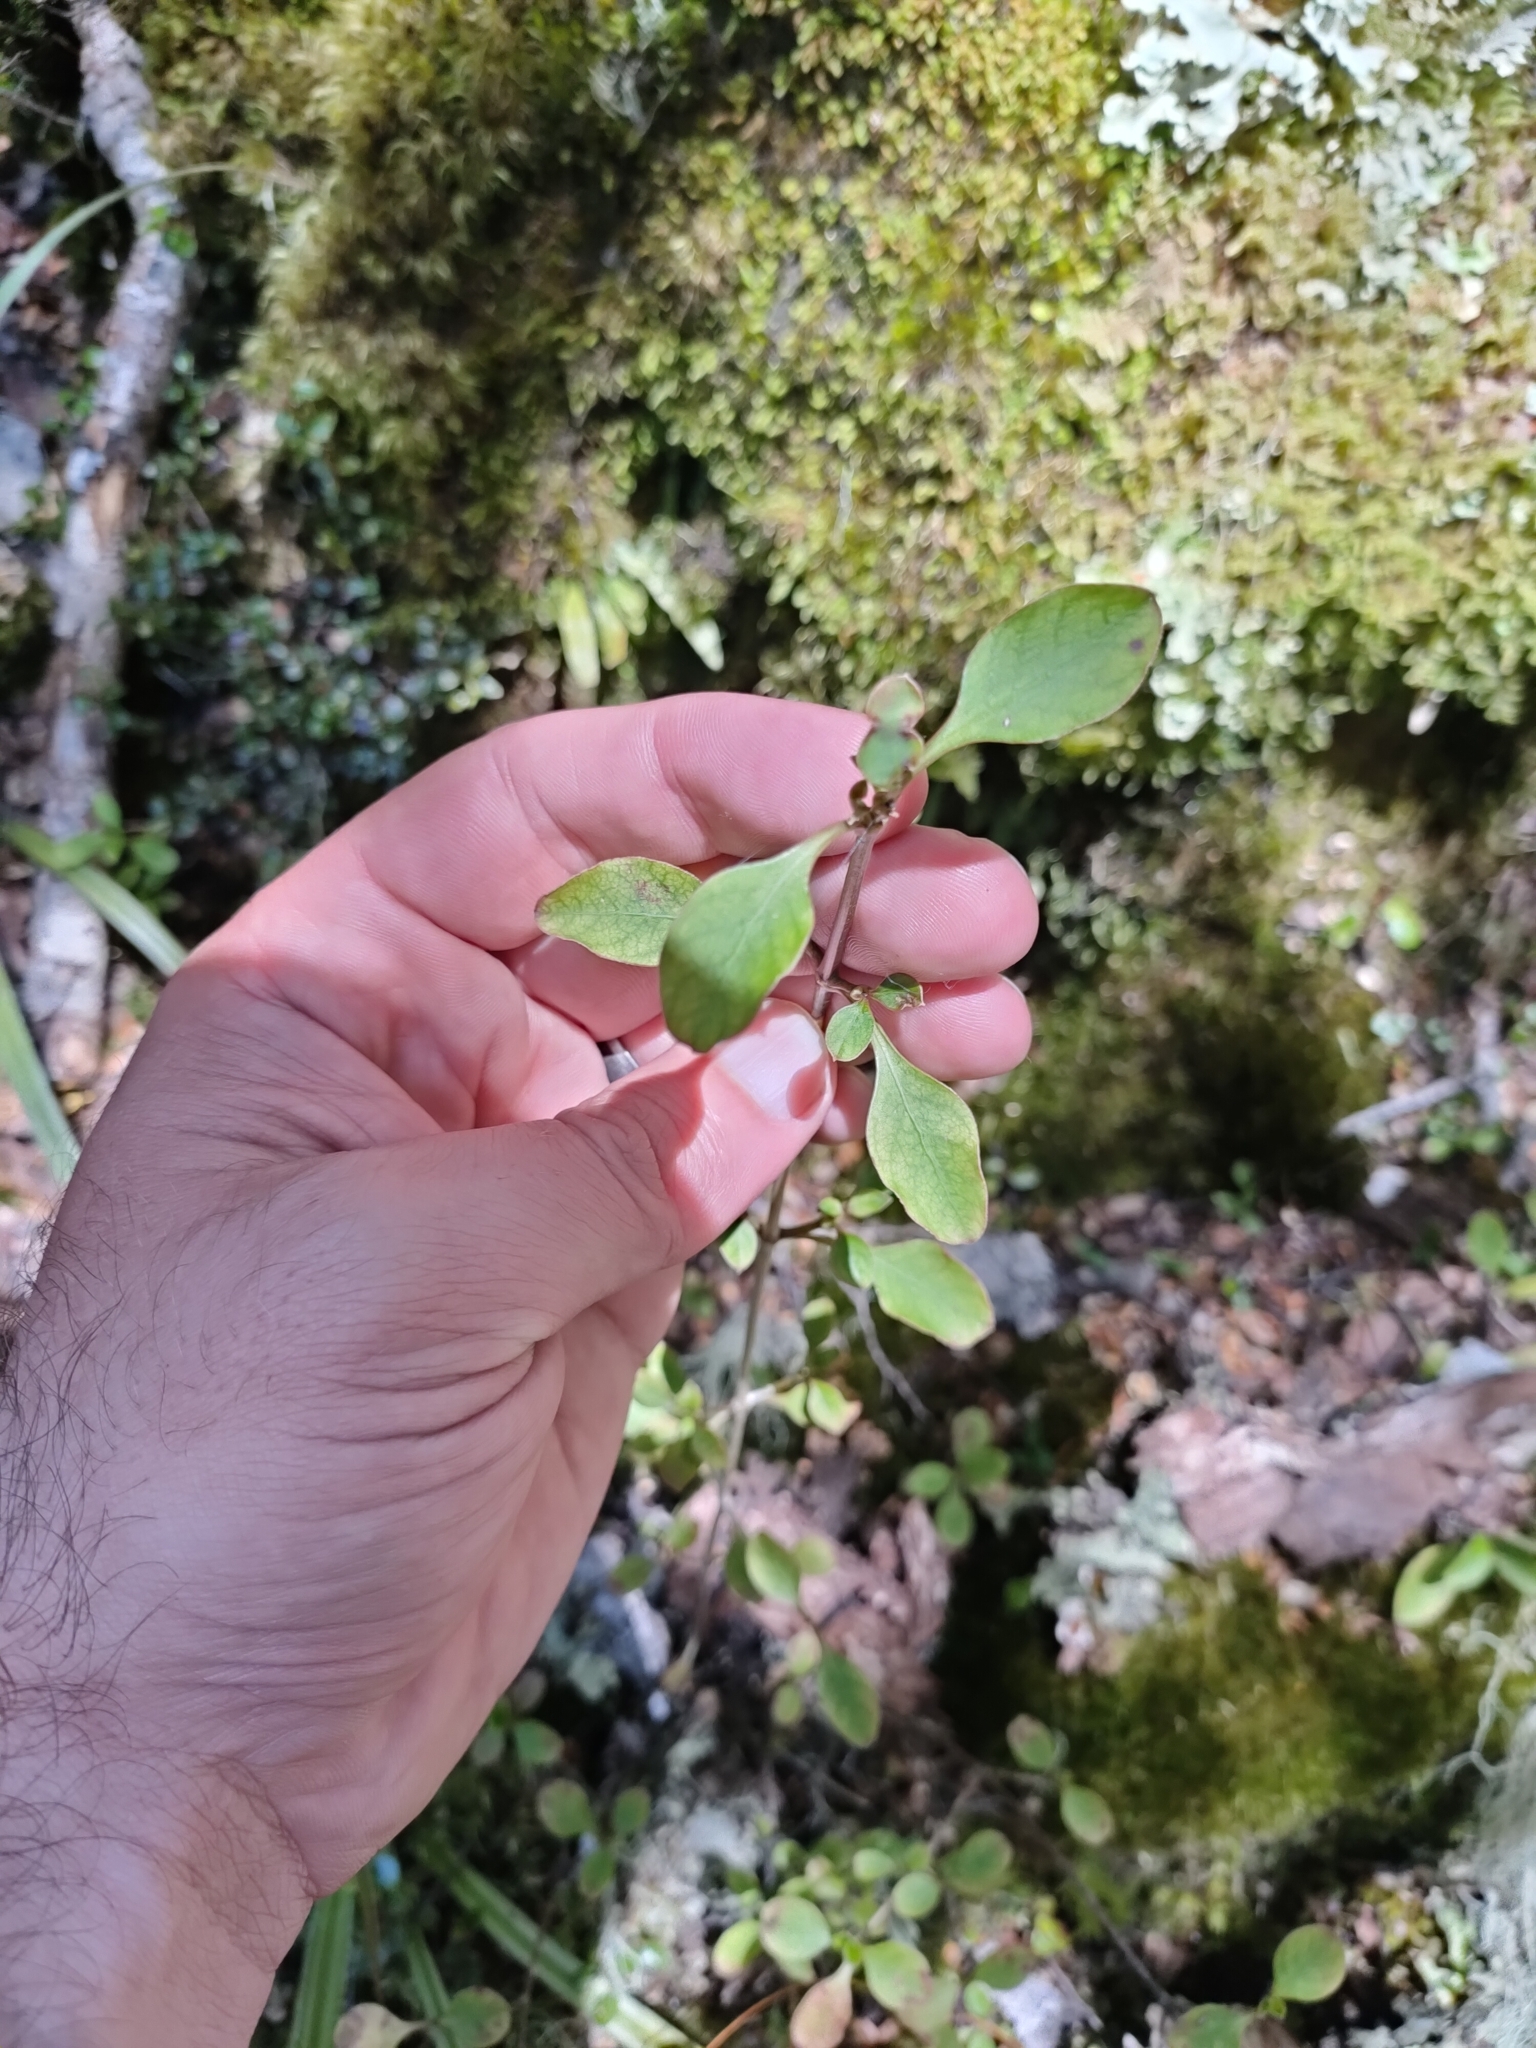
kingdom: Plantae
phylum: Tracheophyta
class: Magnoliopsida
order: Gentianales
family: Rubiaceae
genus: Coprosma
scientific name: Coprosma foetidissima
